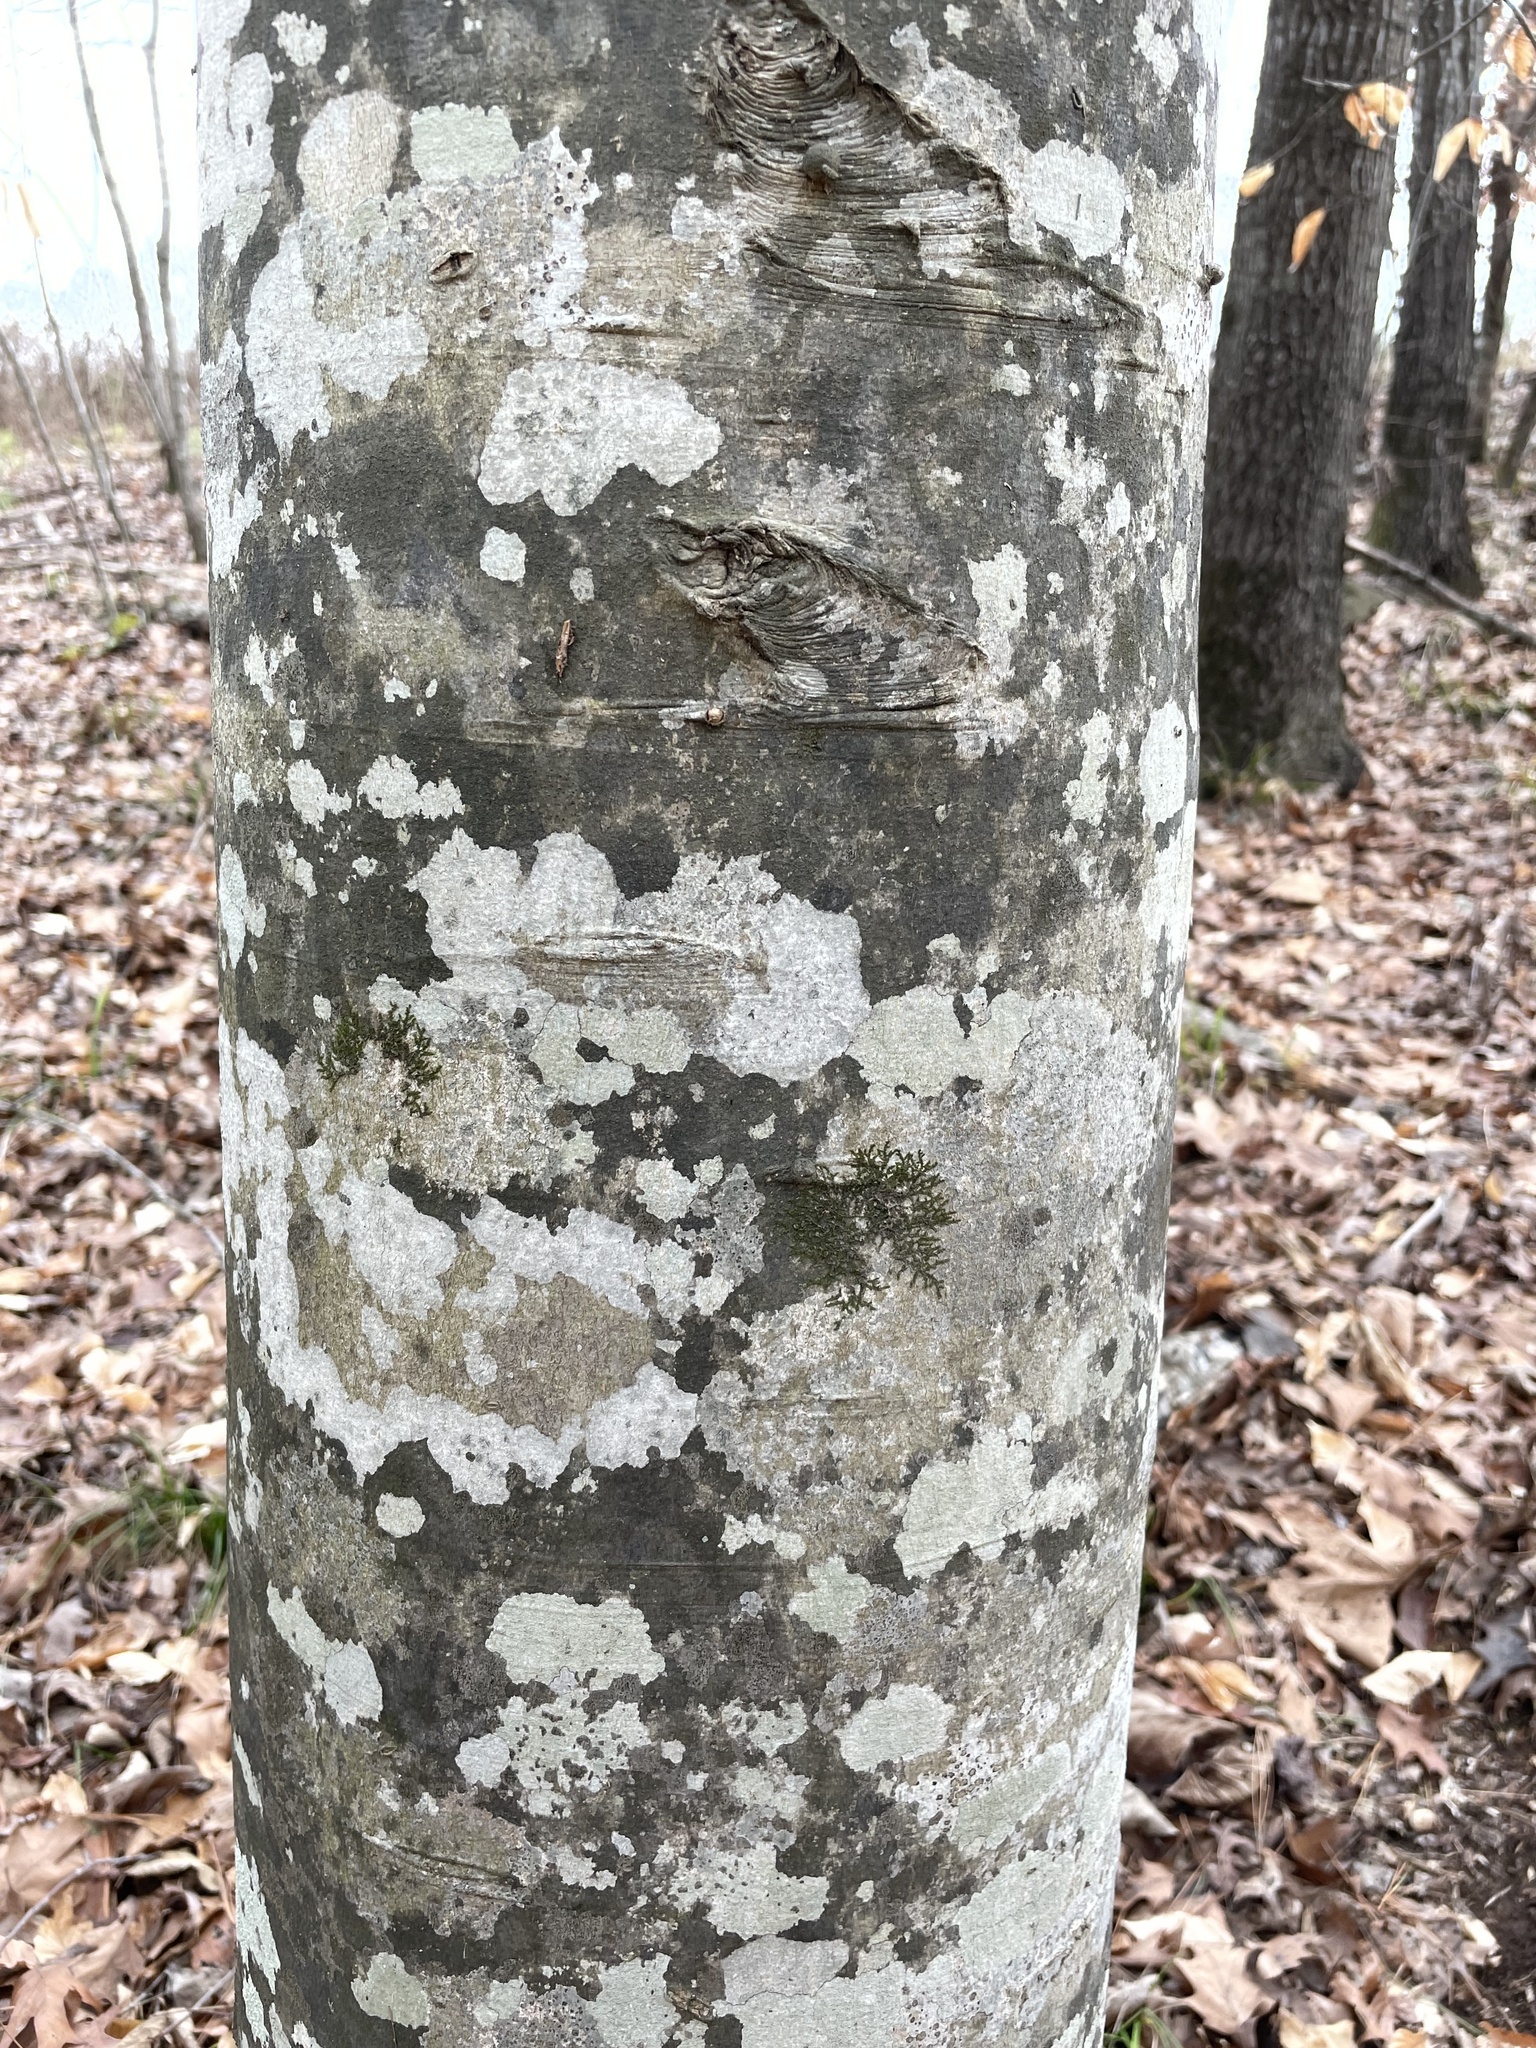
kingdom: Plantae
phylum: Tracheophyta
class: Magnoliopsida
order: Fagales
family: Fagaceae
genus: Fagus
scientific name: Fagus grandifolia
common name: American beech
